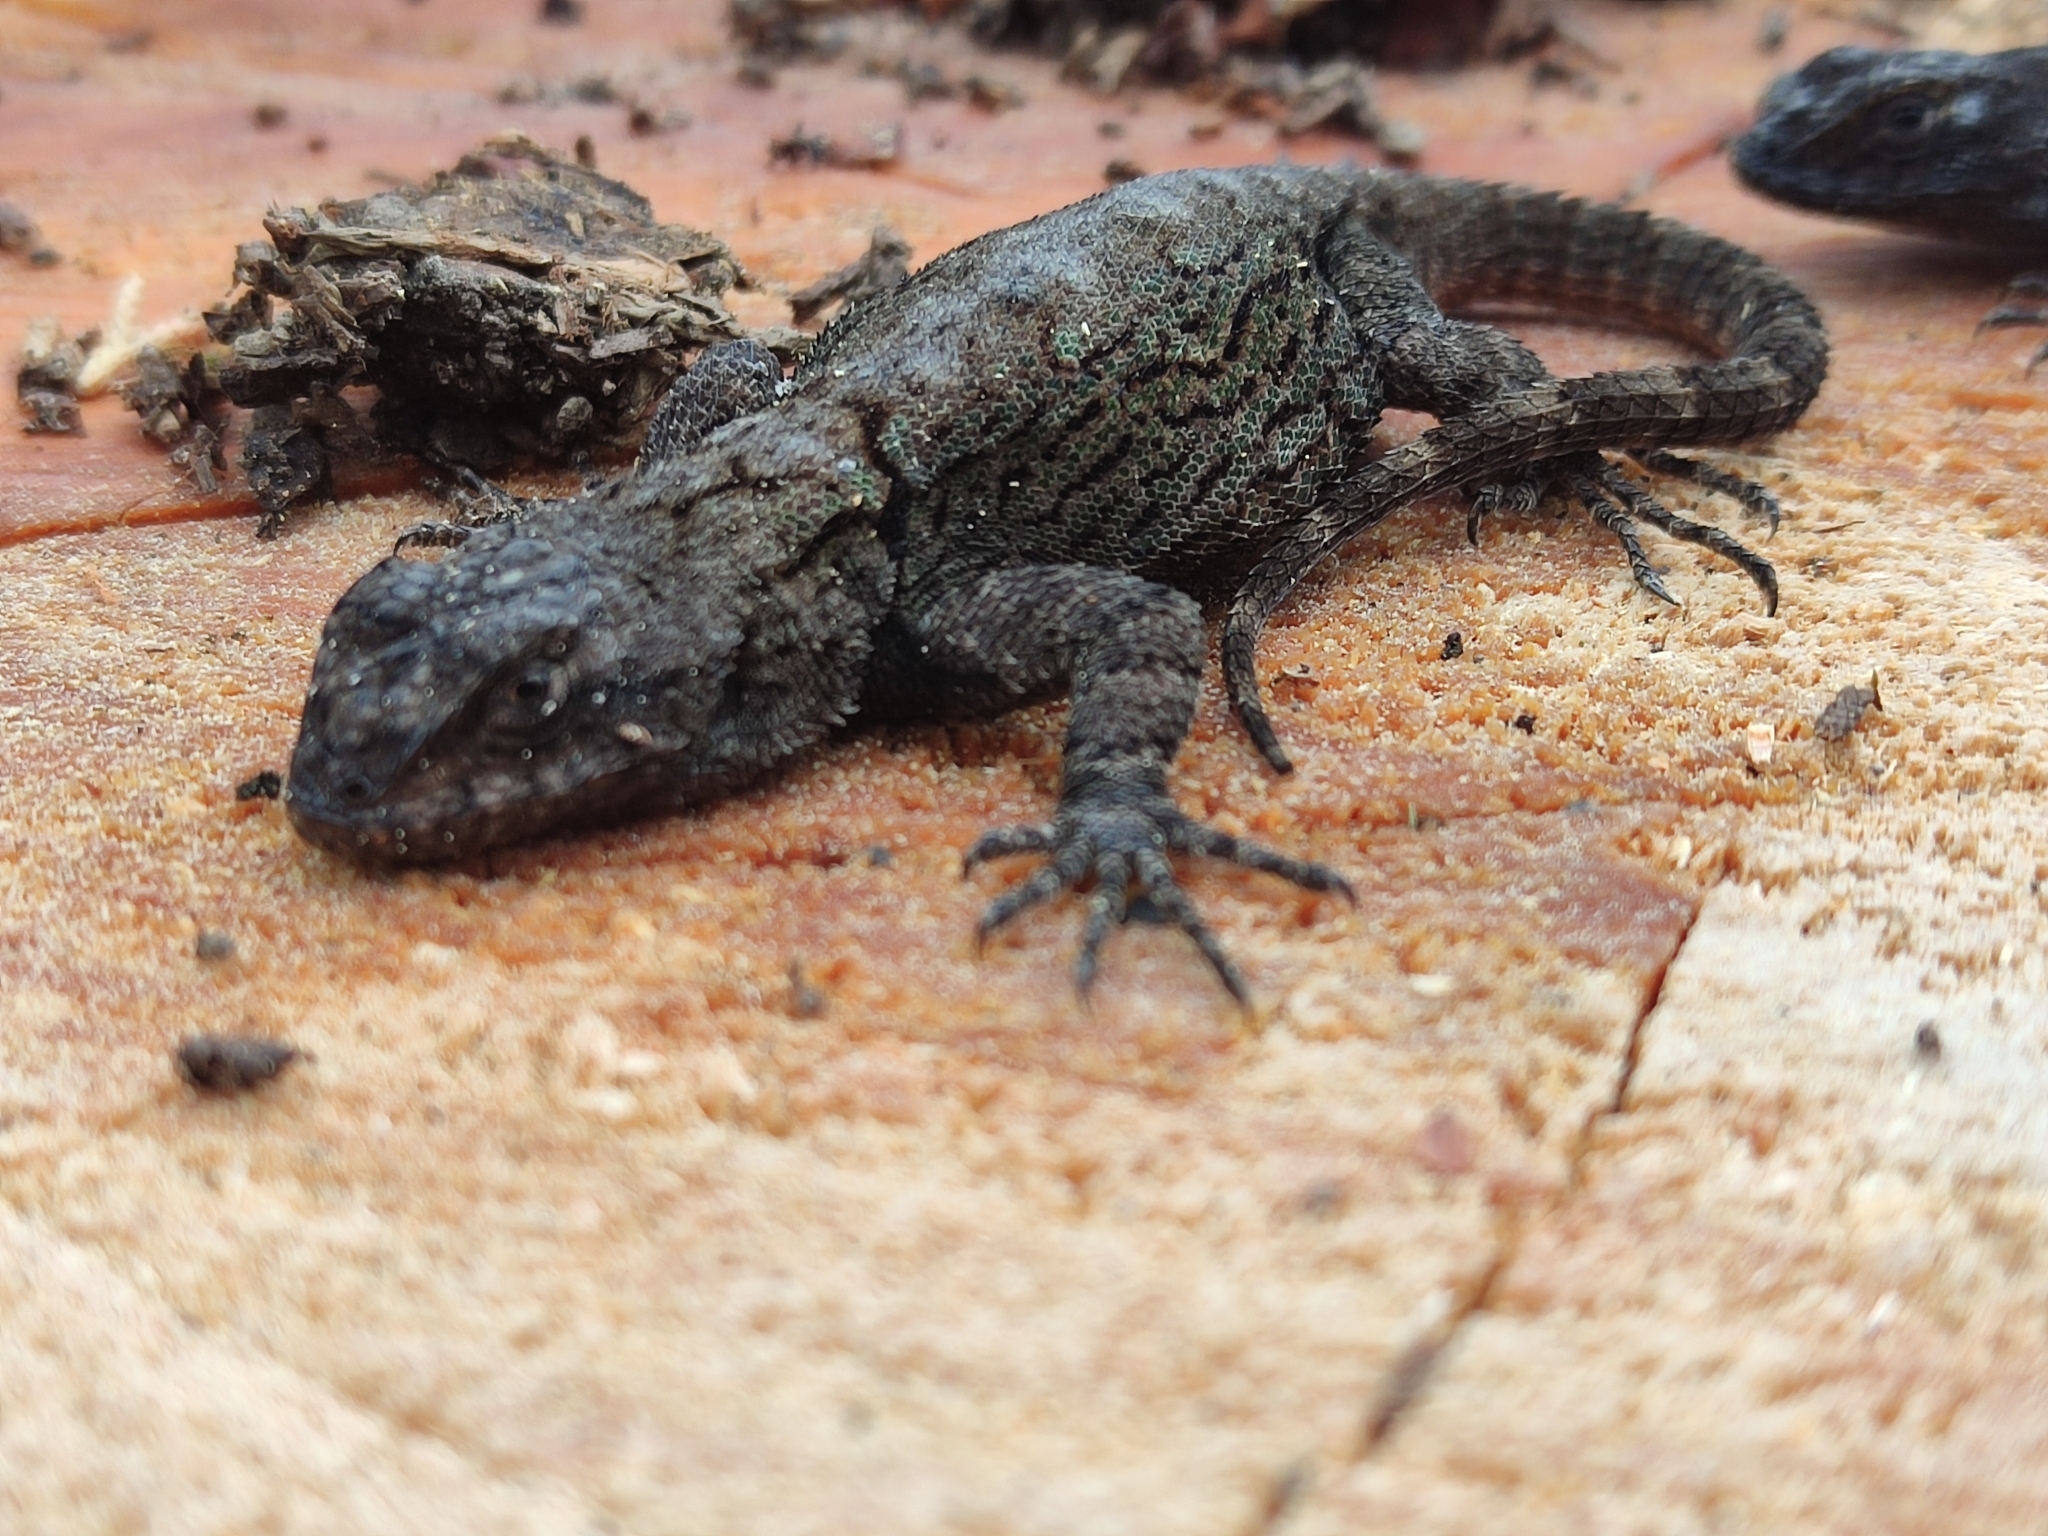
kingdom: Animalia
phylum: Chordata
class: Squamata
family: Phrynosomatidae
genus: Sceloporus
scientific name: Sceloporus grammicus
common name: Mesquite lizard
